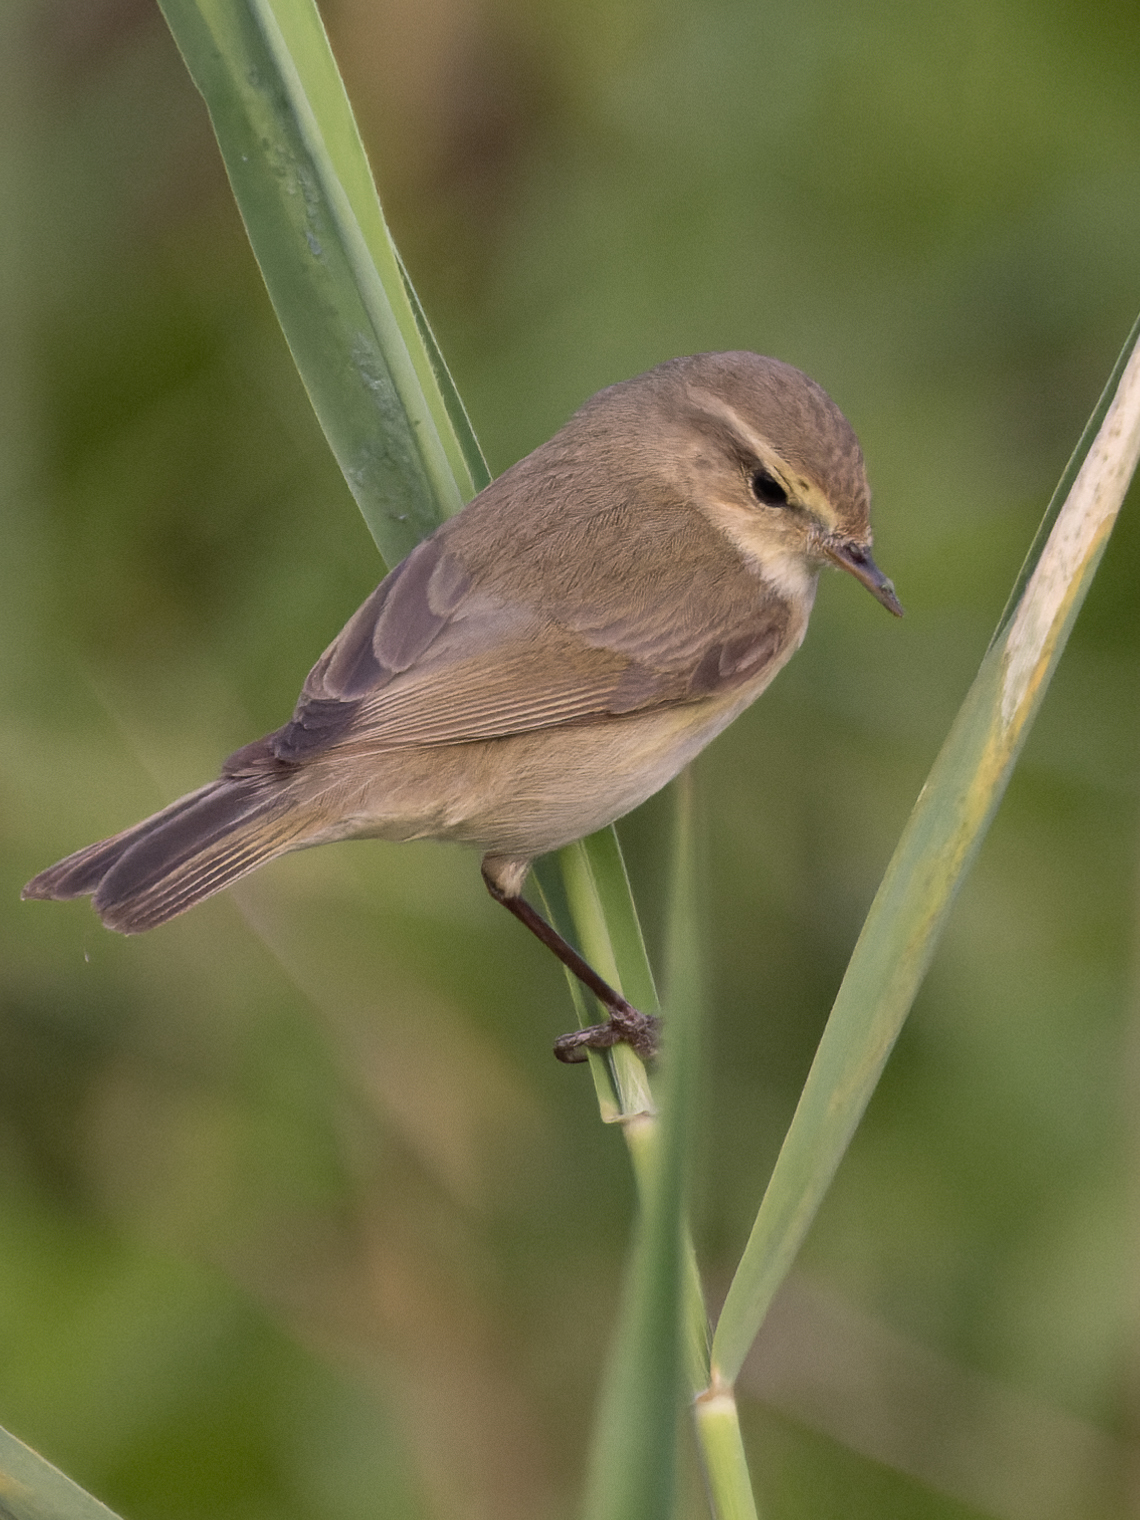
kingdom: Animalia
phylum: Chordata
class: Aves
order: Passeriformes
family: Phylloscopidae
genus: Phylloscopus
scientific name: Phylloscopus collybita
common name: Common chiffchaff
